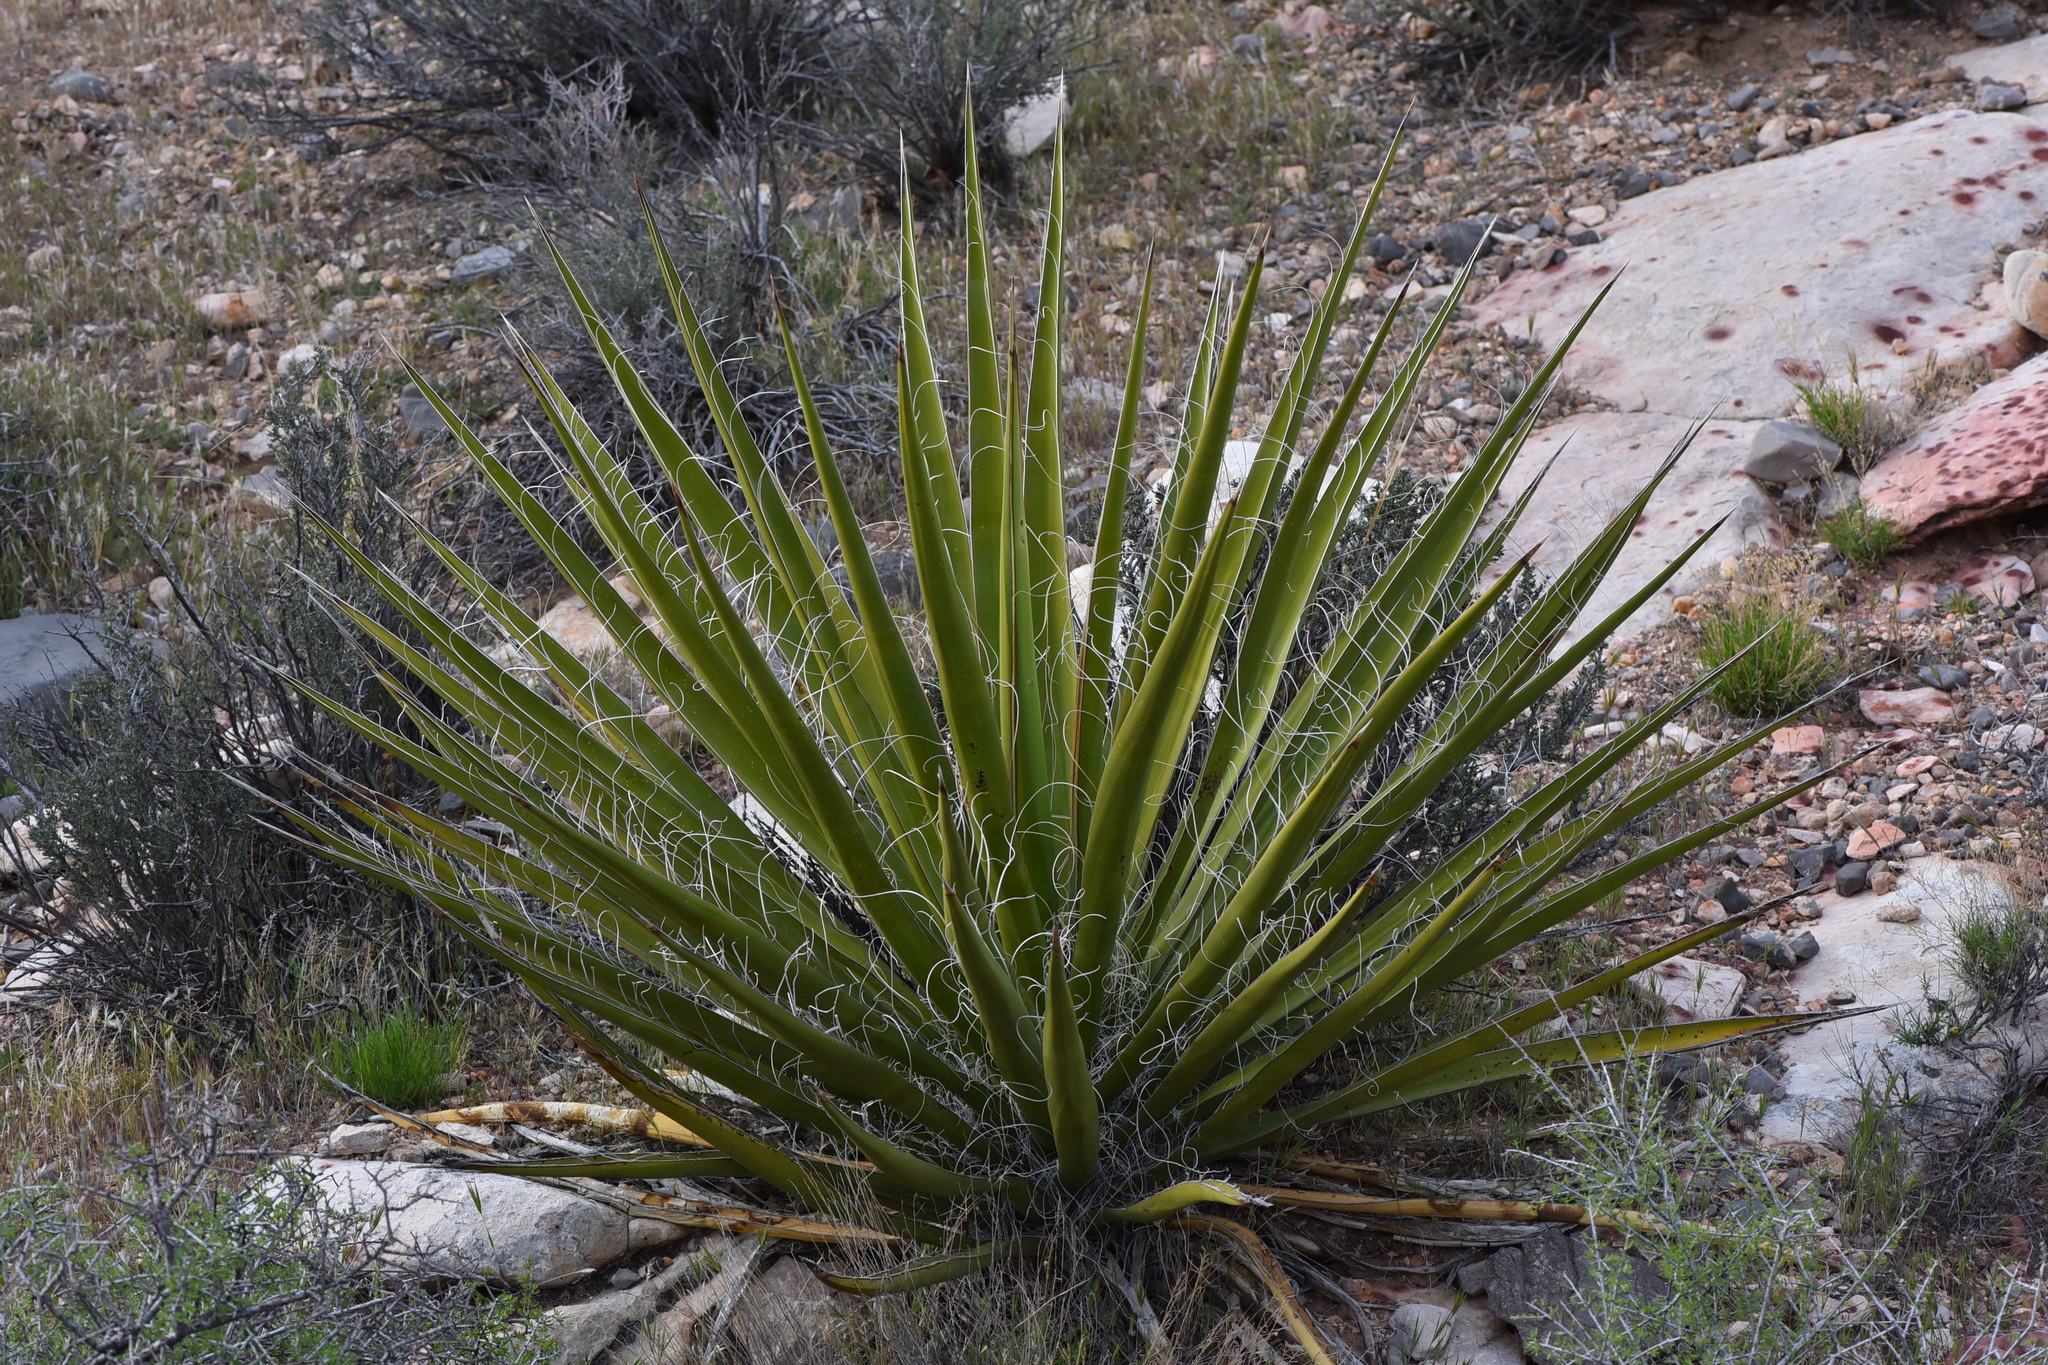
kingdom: Plantae
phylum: Tracheophyta
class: Liliopsida
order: Asparagales
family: Asparagaceae
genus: Yucca
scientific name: Yucca schidigera
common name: Mojave yucca
